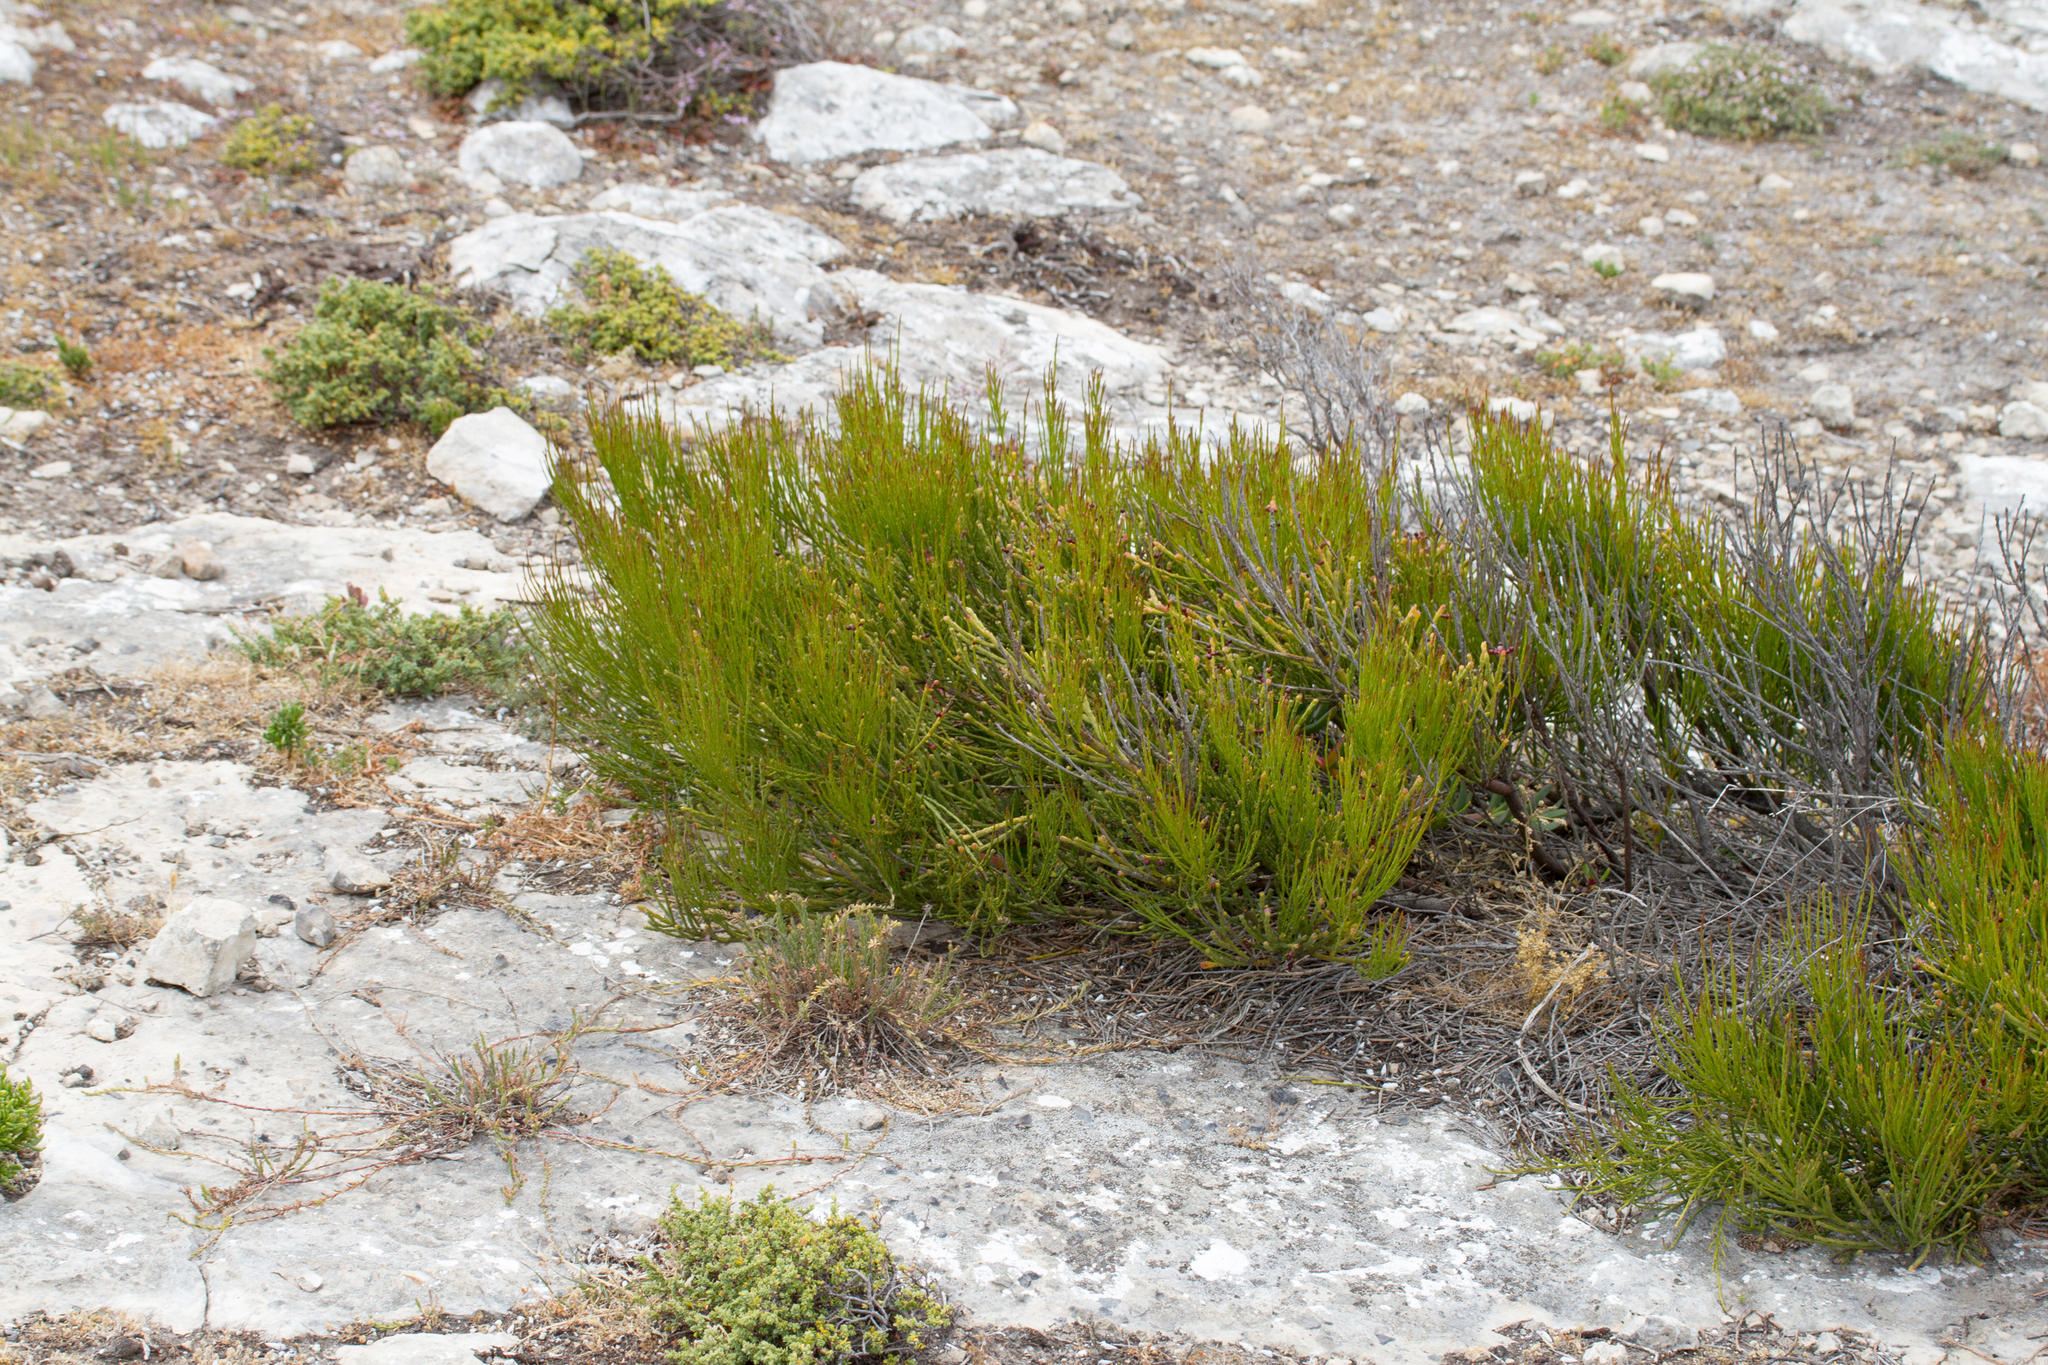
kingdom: Plantae
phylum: Tracheophyta
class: Magnoliopsida
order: Santalales
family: Santalaceae
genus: Exocarpos
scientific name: Exocarpos syrticola
